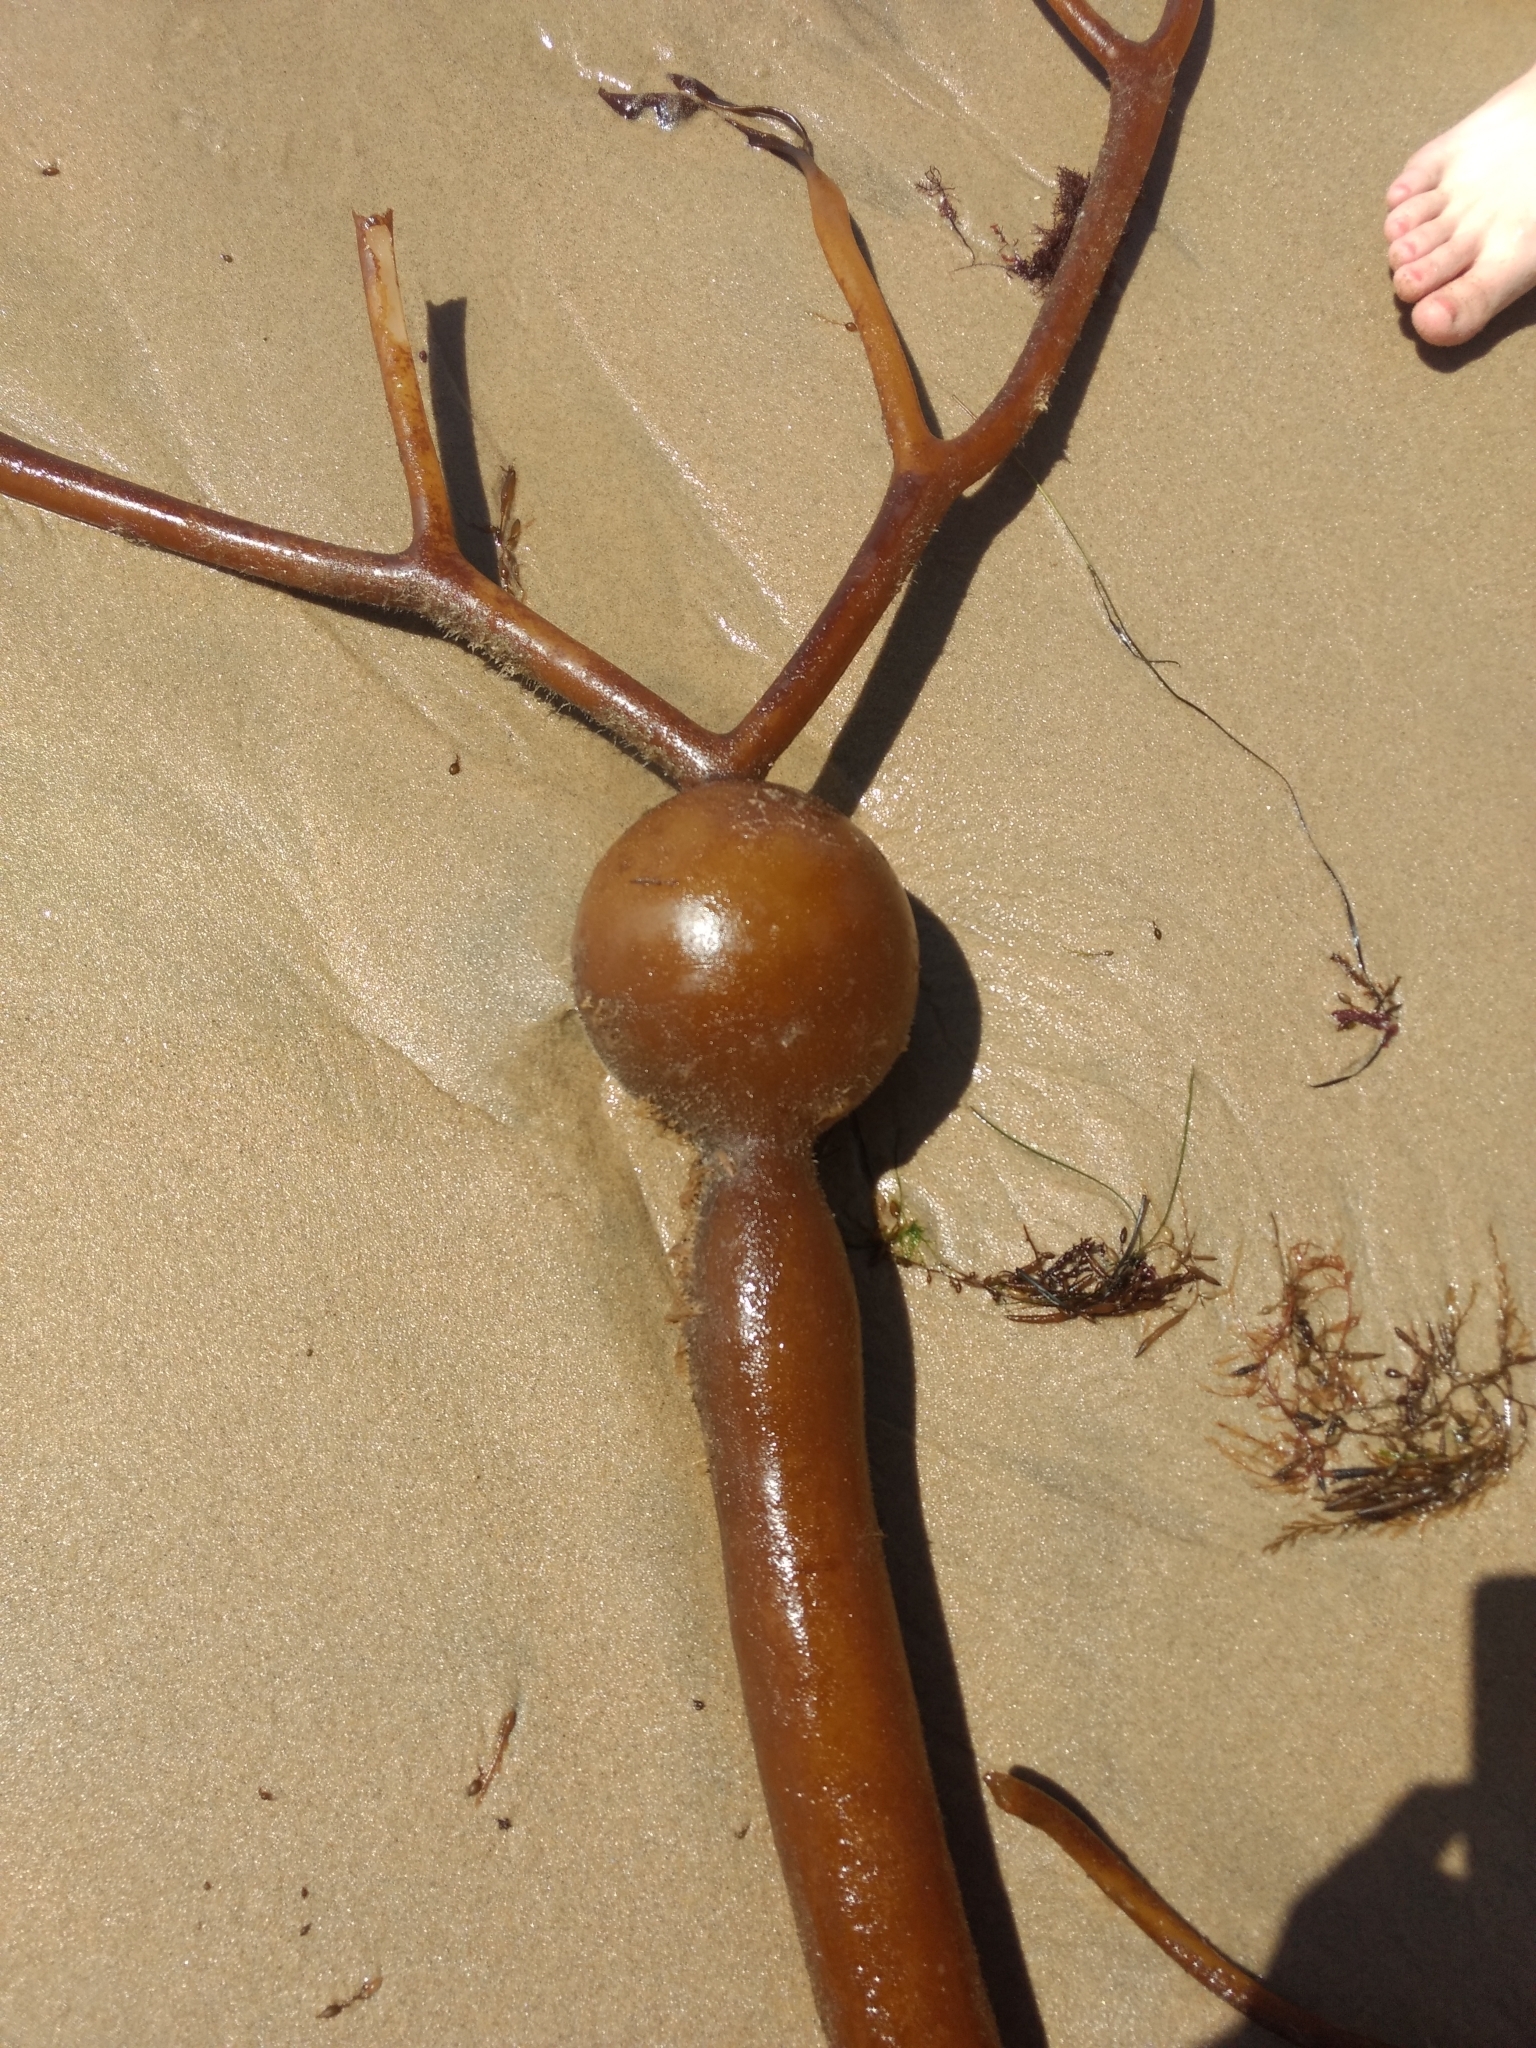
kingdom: Chromista
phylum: Ochrophyta
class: Phaeophyceae
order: Laminariales
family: Laminariaceae
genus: Pelagophycus
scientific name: Pelagophycus porra
